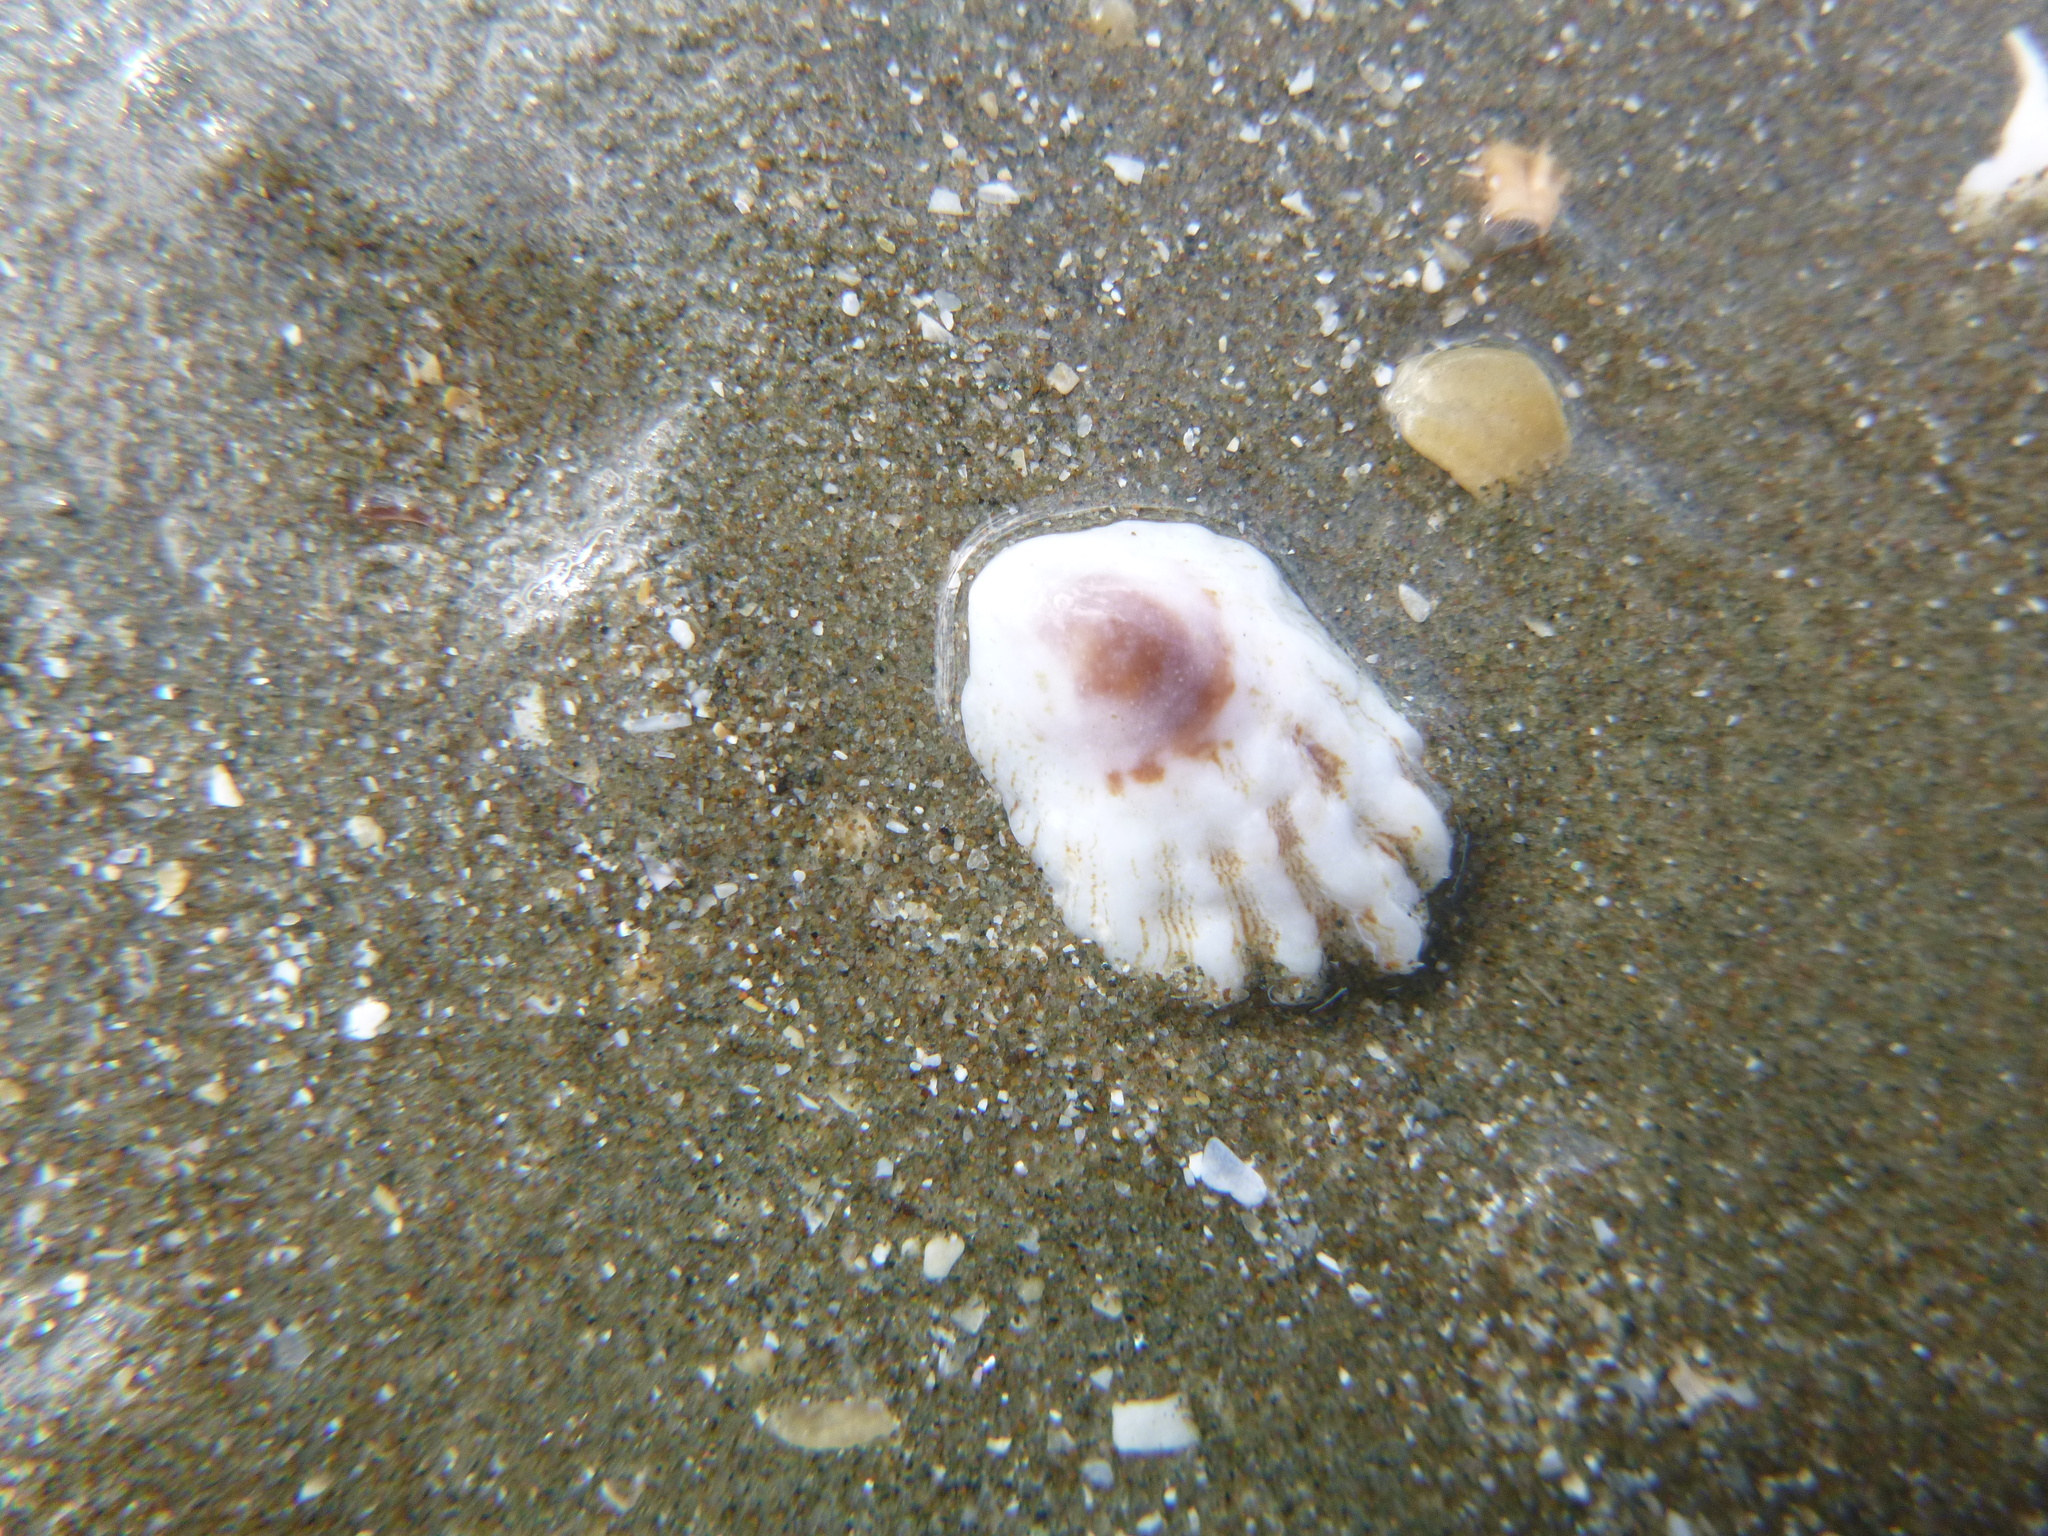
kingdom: Animalia
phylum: Mollusca
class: Gastropoda
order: Littorinimorpha
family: Calyptraeidae
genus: Maoricrypta
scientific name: Maoricrypta costata
